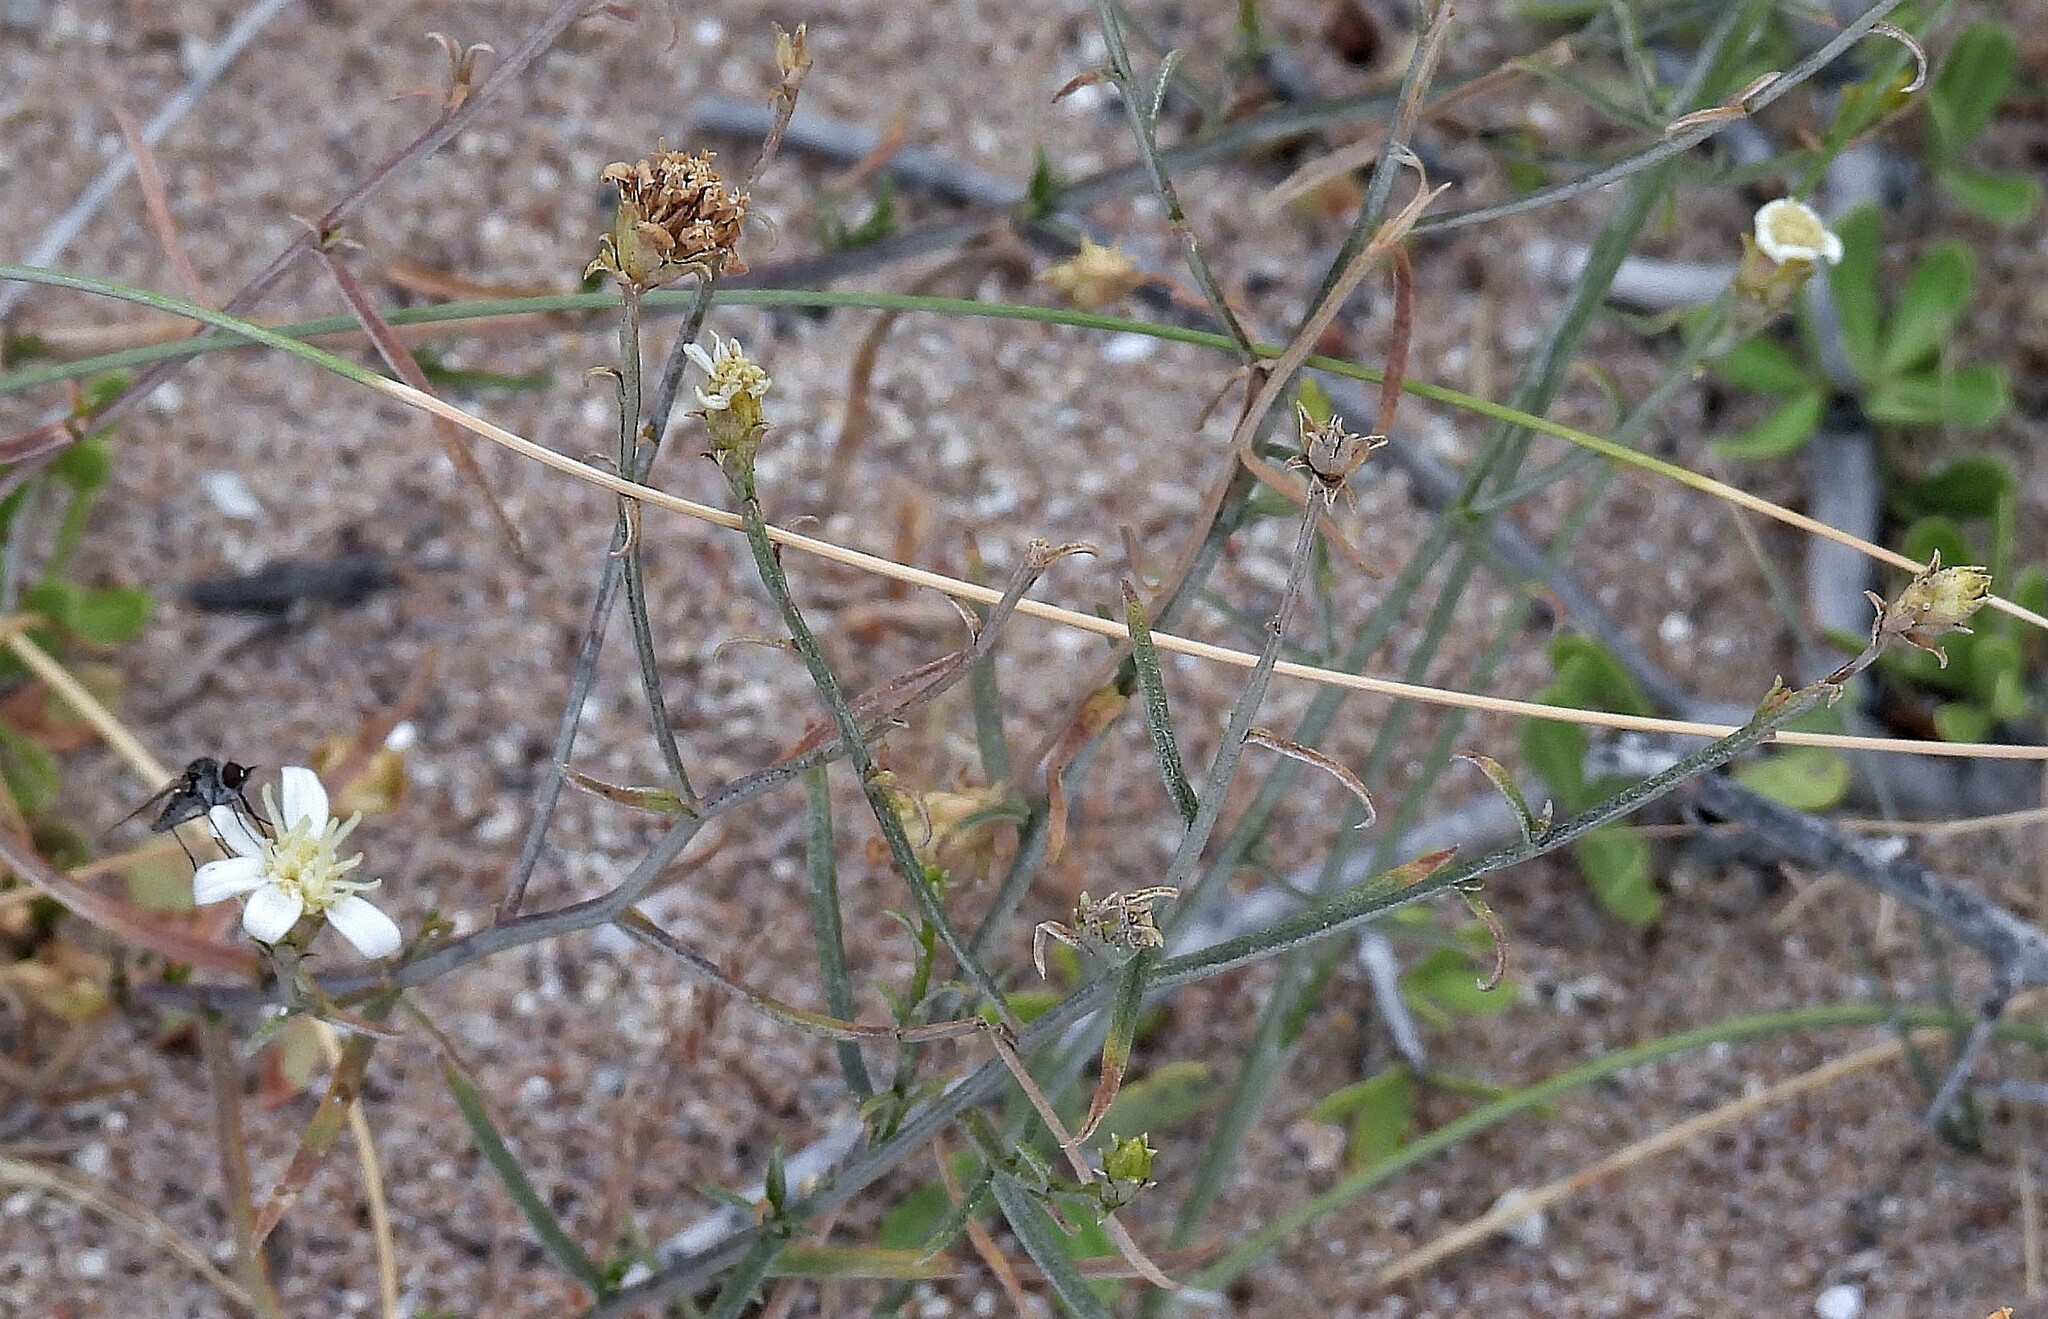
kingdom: Plantae
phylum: Tracheophyta
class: Magnoliopsida
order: Asterales
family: Asteraceae
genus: Gutierrezia
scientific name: Gutierrezia gilliesii
